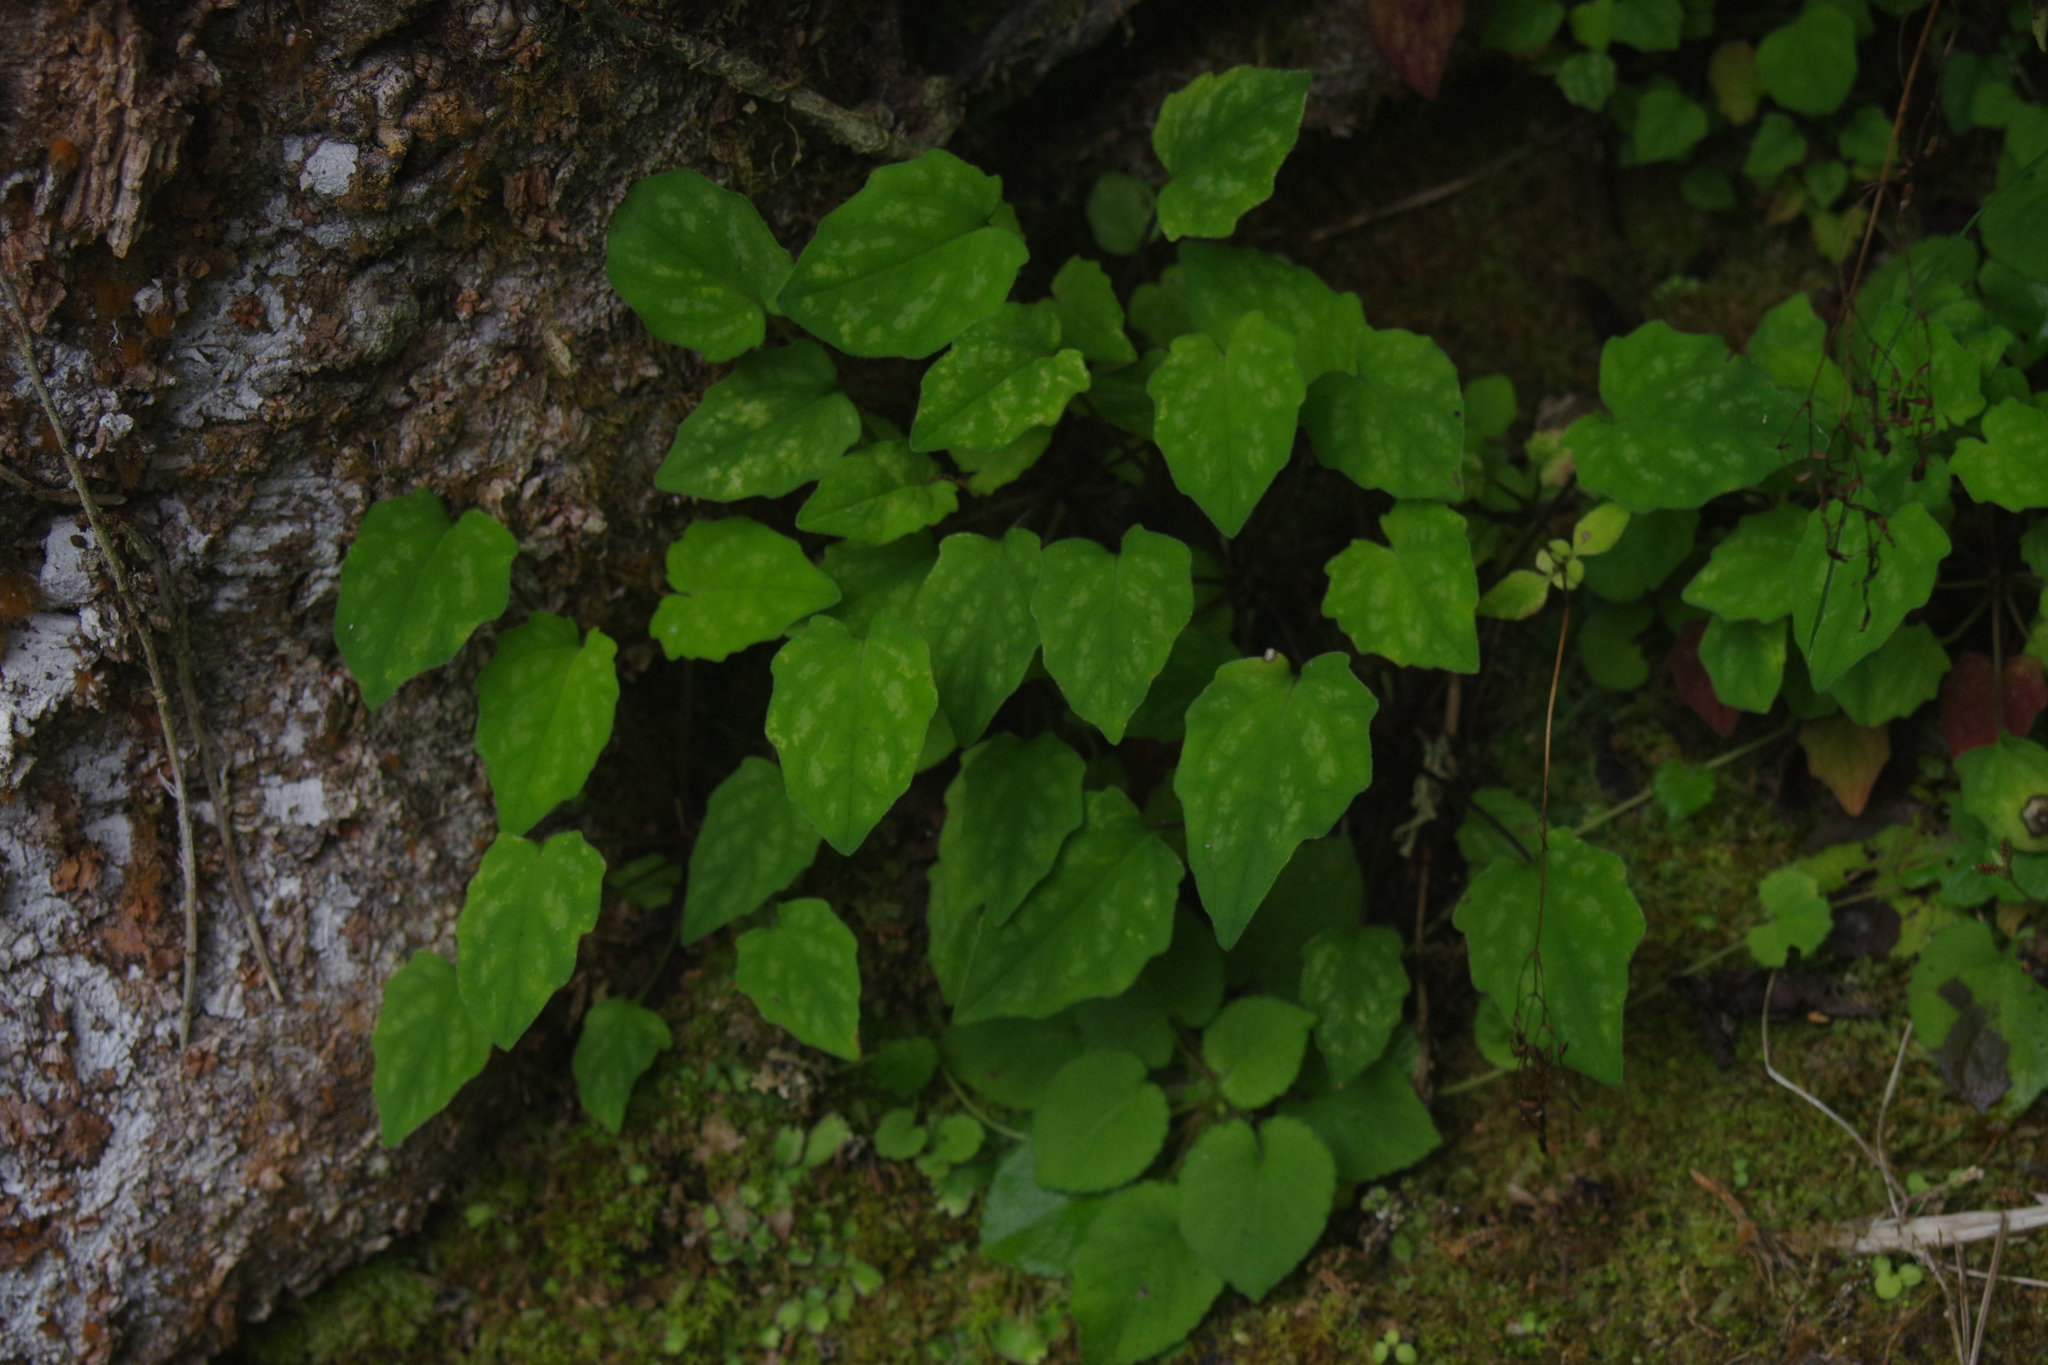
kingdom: Plantae
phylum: Tracheophyta
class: Magnoliopsida
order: Dipsacales
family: Caprifoliaceae
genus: Valeriana
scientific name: Valeriana hsui
